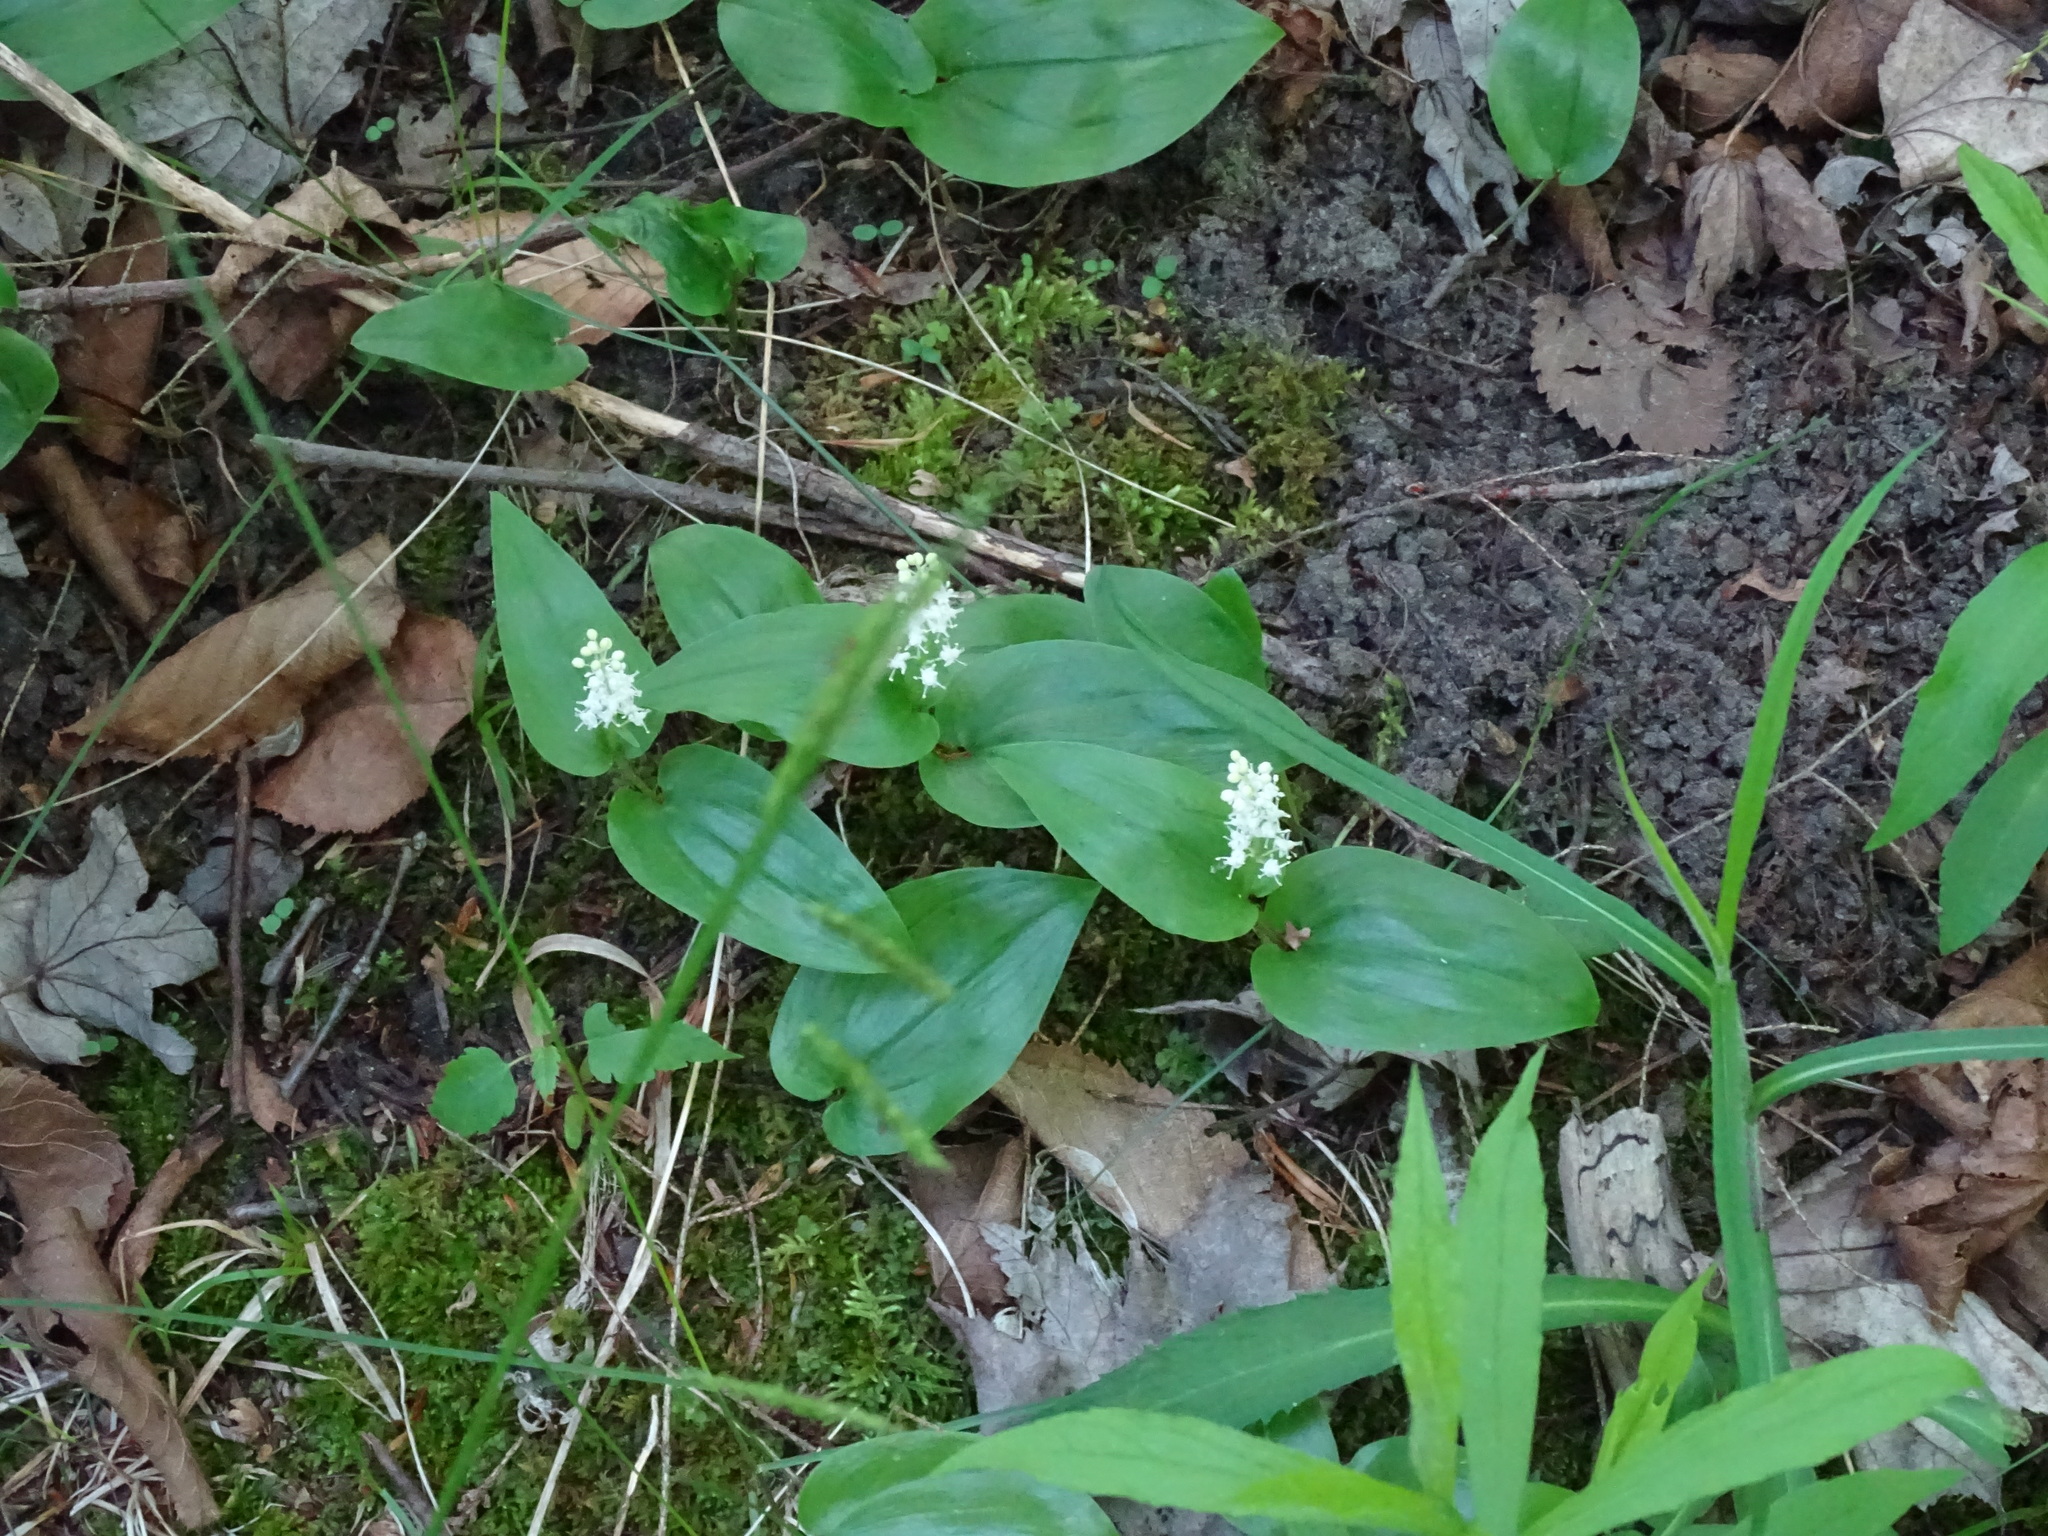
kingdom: Plantae
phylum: Tracheophyta
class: Liliopsida
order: Asparagales
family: Asparagaceae
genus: Maianthemum
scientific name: Maianthemum canadense
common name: False lily-of-the-valley
